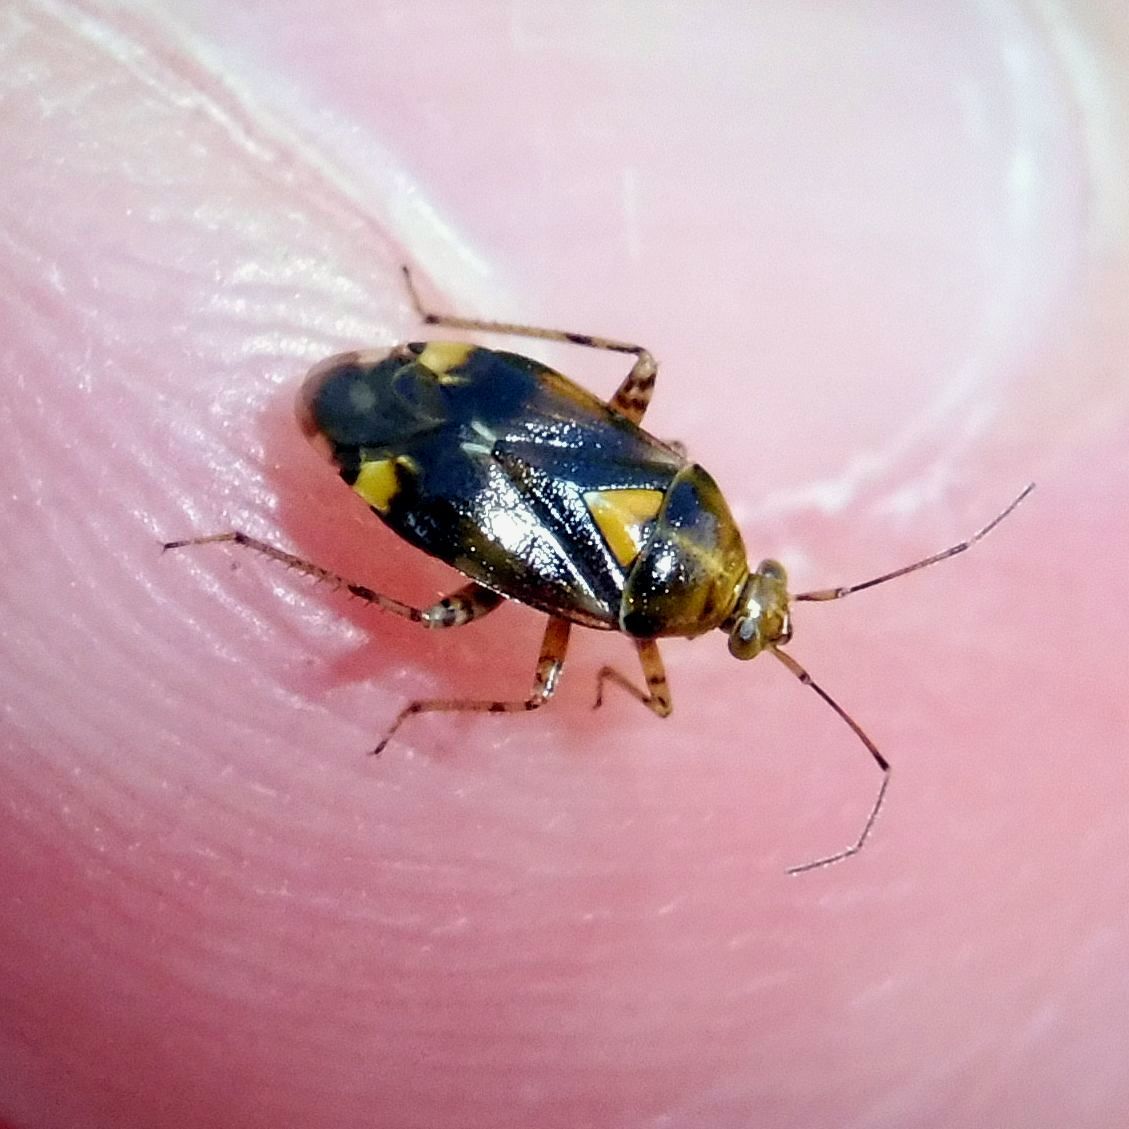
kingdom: Animalia
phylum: Arthropoda
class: Insecta
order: Hemiptera
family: Miridae
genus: Liocoris
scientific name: Liocoris tripustulatus
